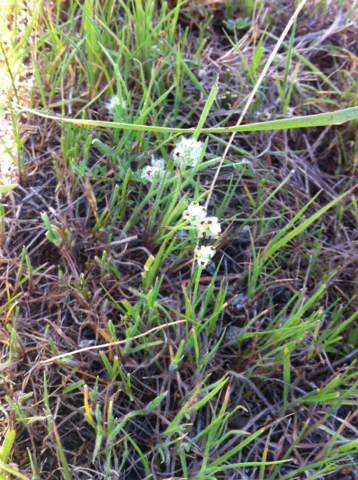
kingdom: Plantae
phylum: Tracheophyta
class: Magnoliopsida
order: Lamiales
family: Plantaginaceae
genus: Plantago
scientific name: Plantago erecta
